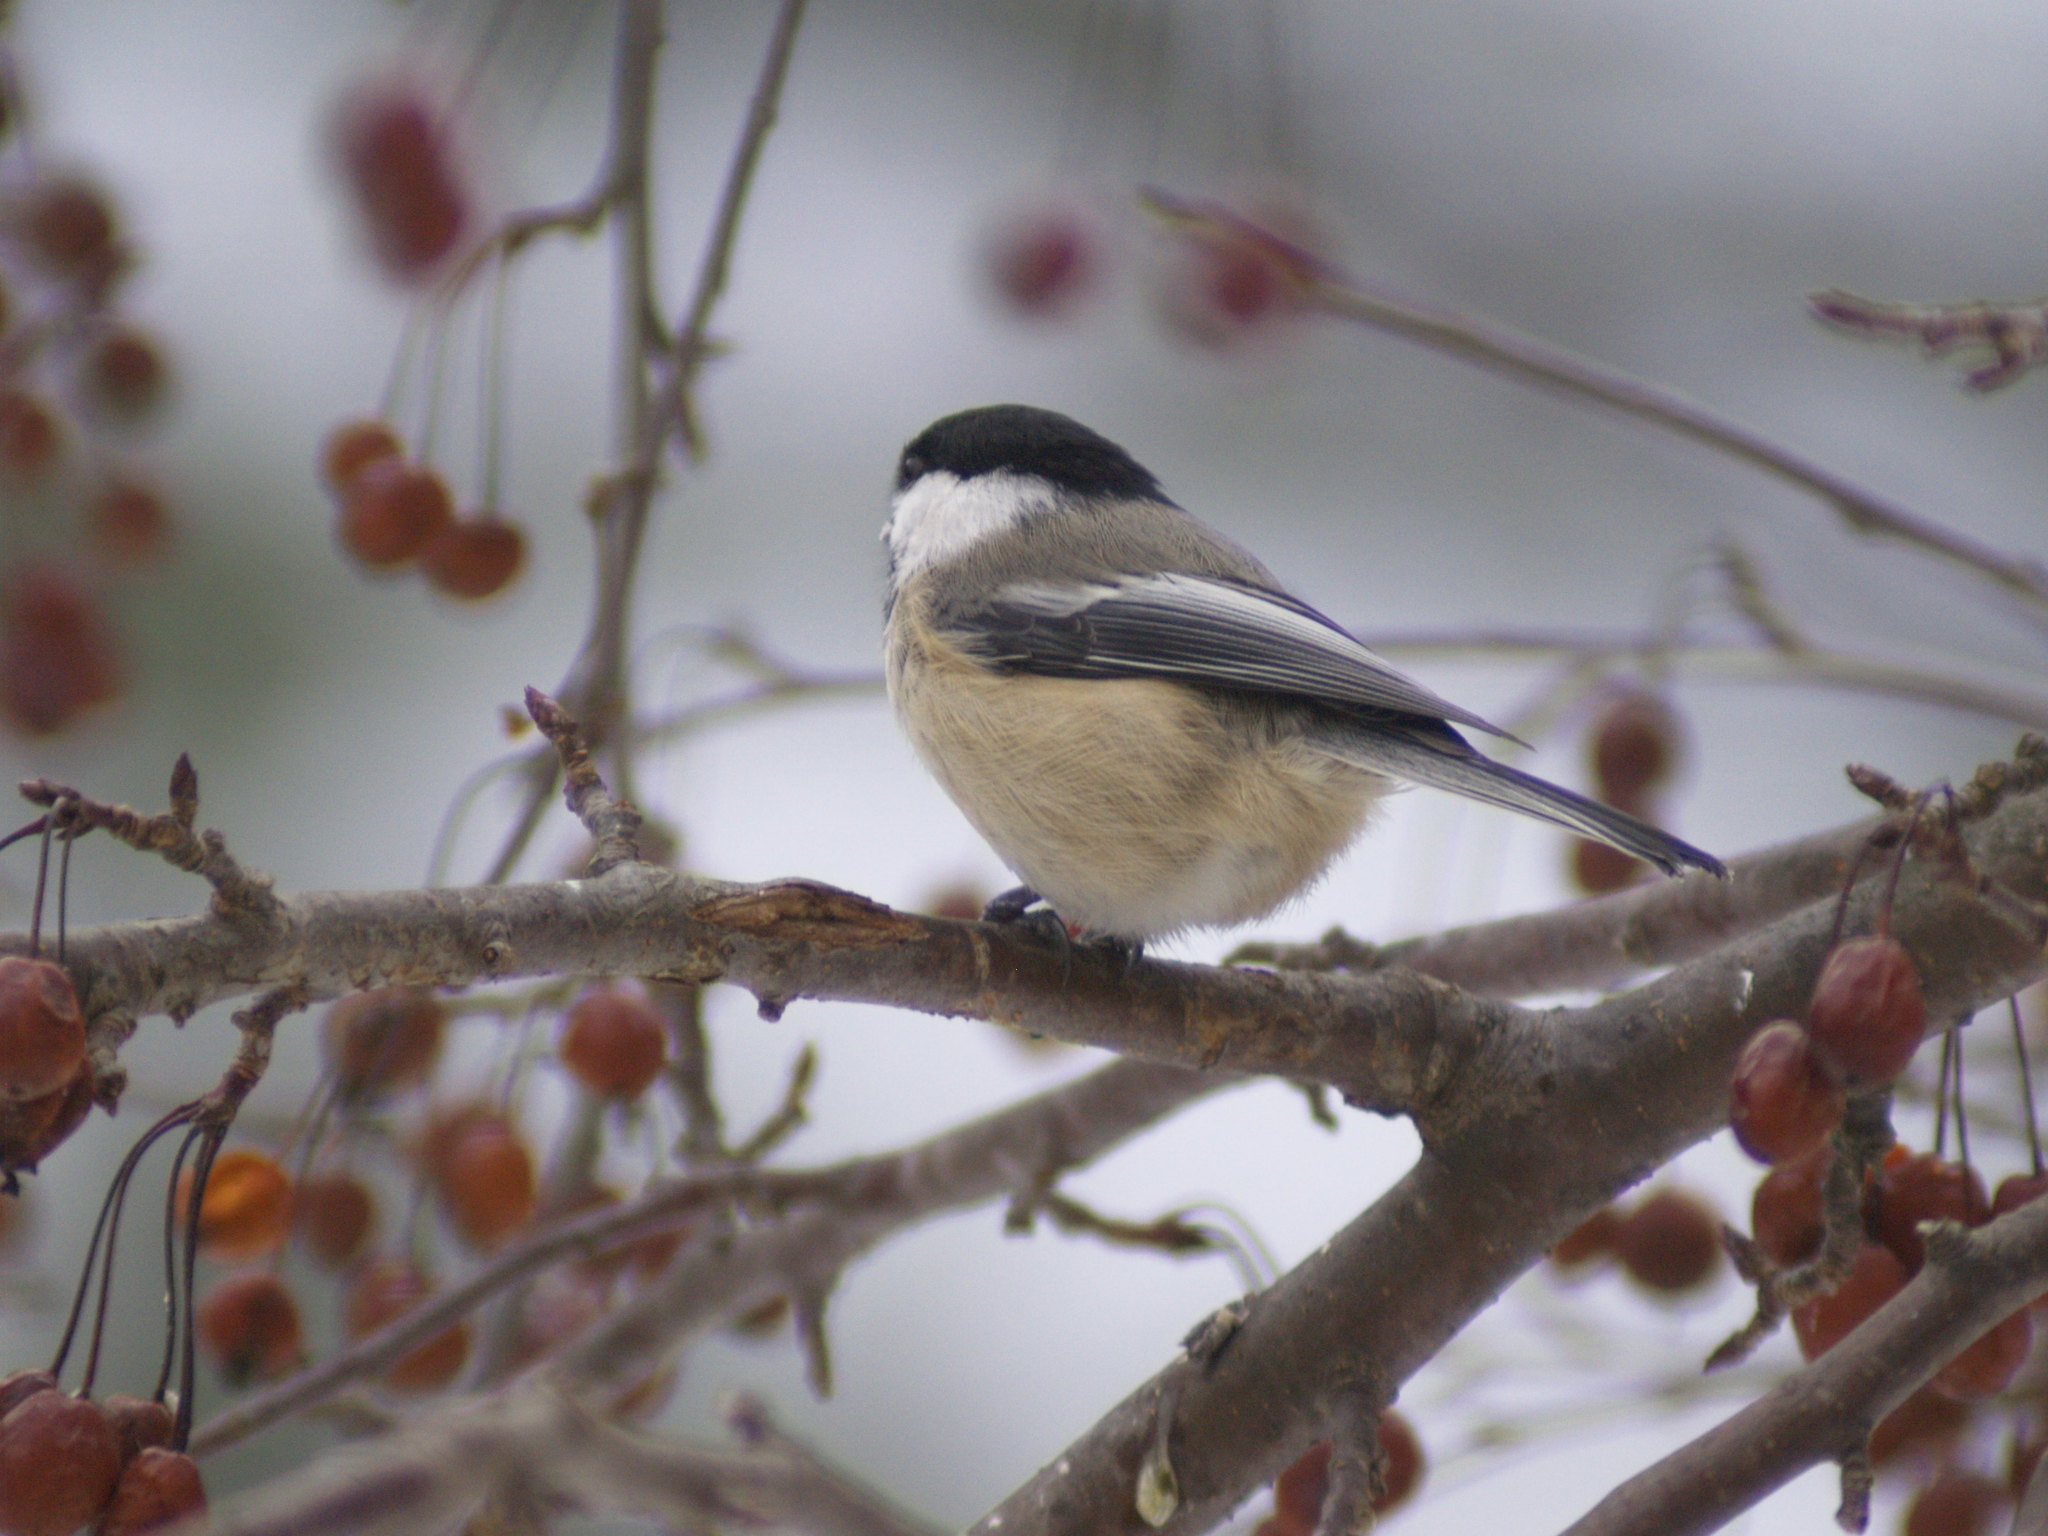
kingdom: Animalia
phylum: Chordata
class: Aves
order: Passeriformes
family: Paridae
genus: Poecile
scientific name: Poecile atricapillus
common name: Black-capped chickadee
